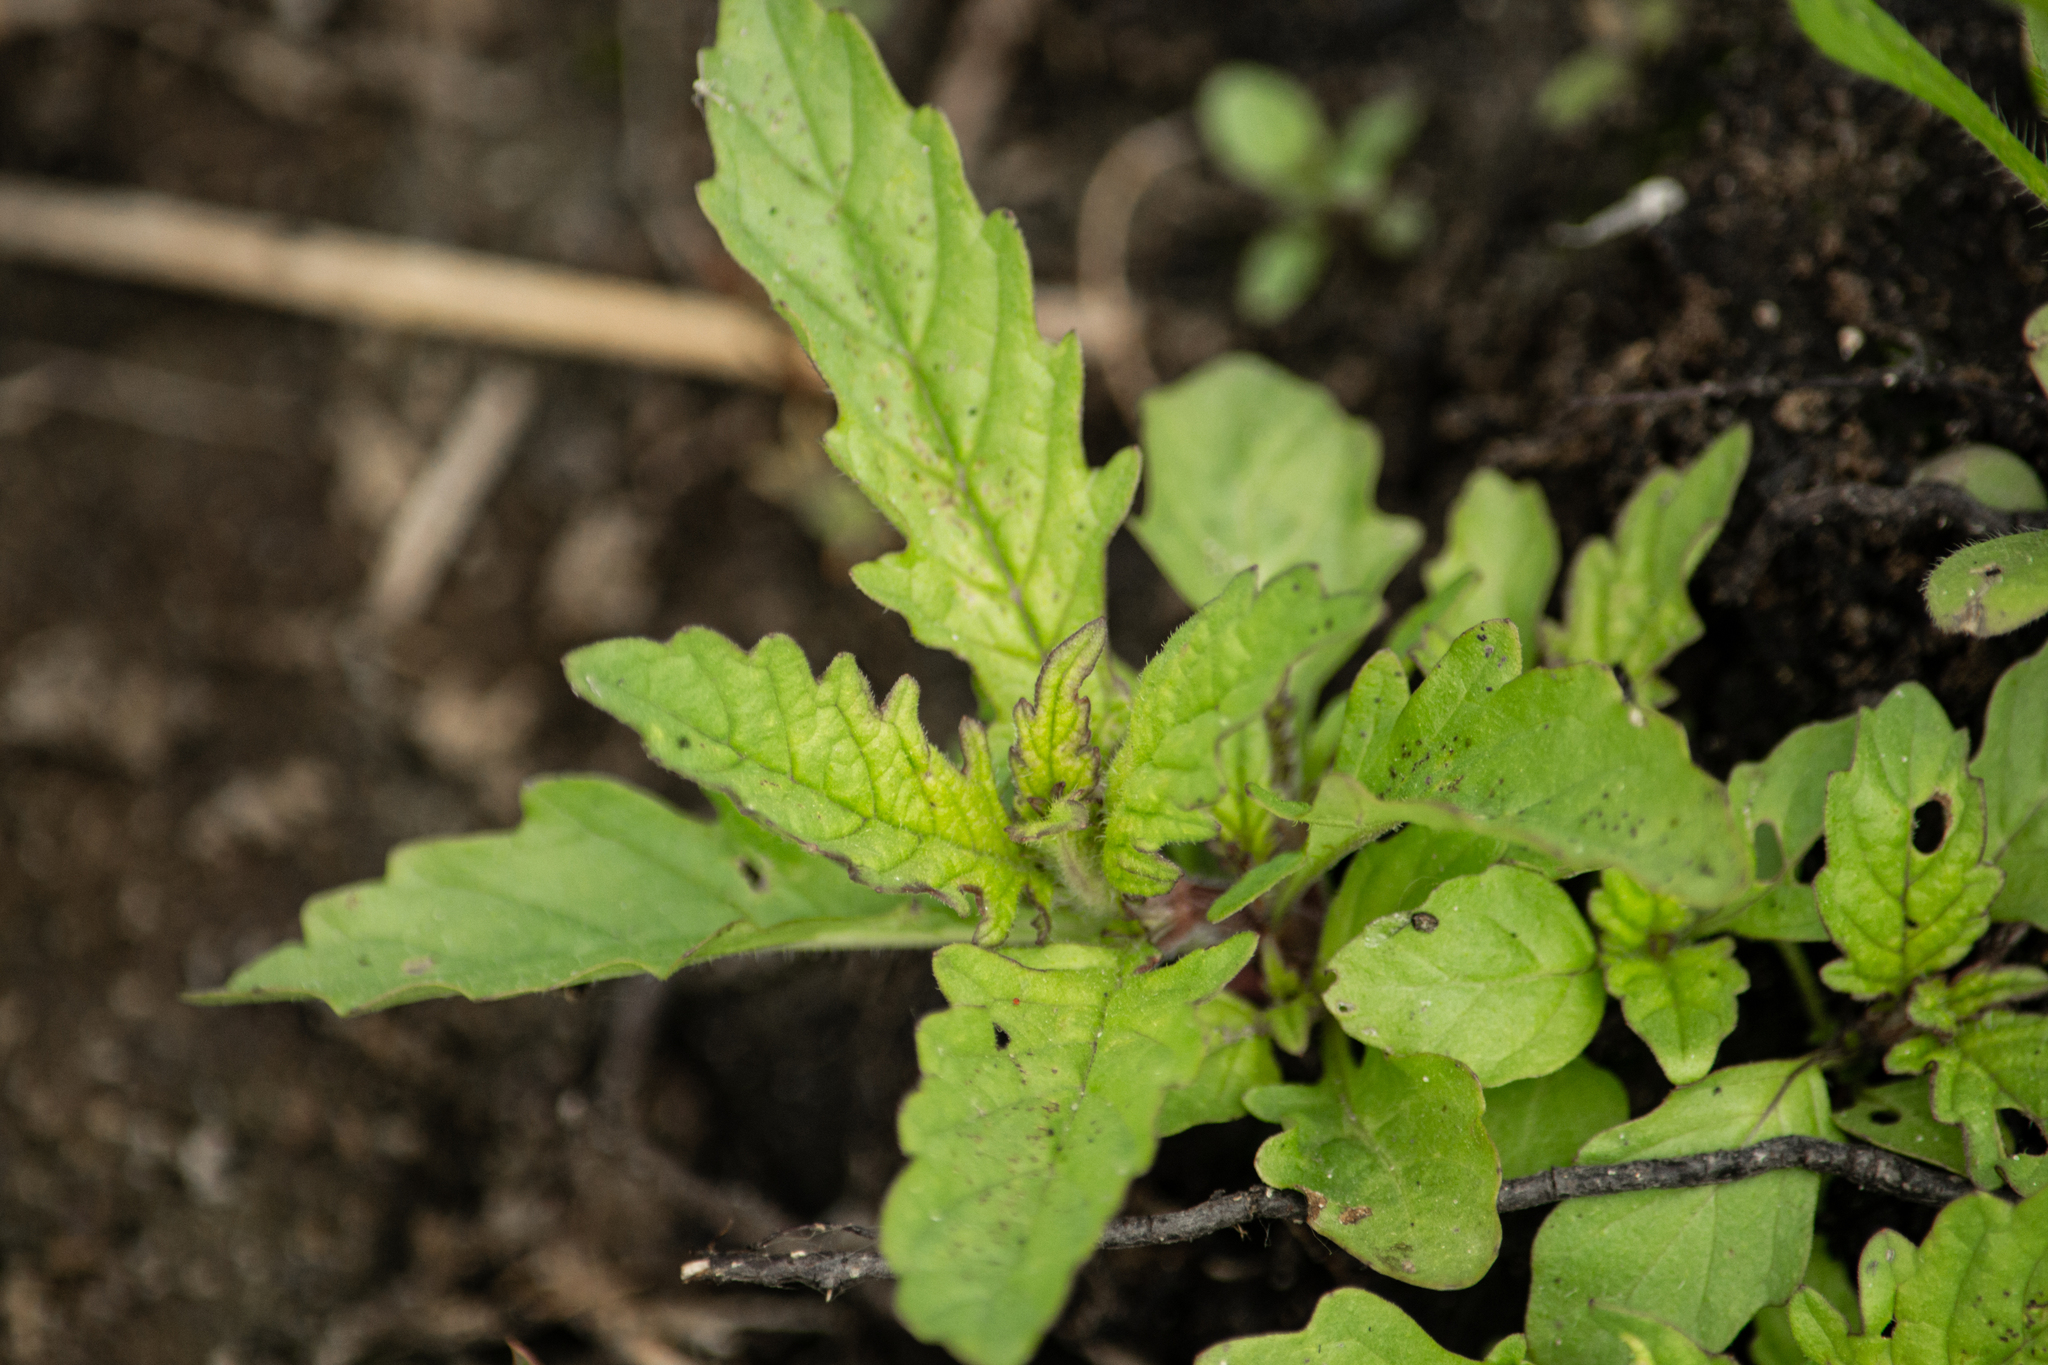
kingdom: Plantae
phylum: Tracheophyta
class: Magnoliopsida
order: Lamiales
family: Lamiaceae
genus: Lycopus
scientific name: Lycopus europaeus
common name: European bugleweed
